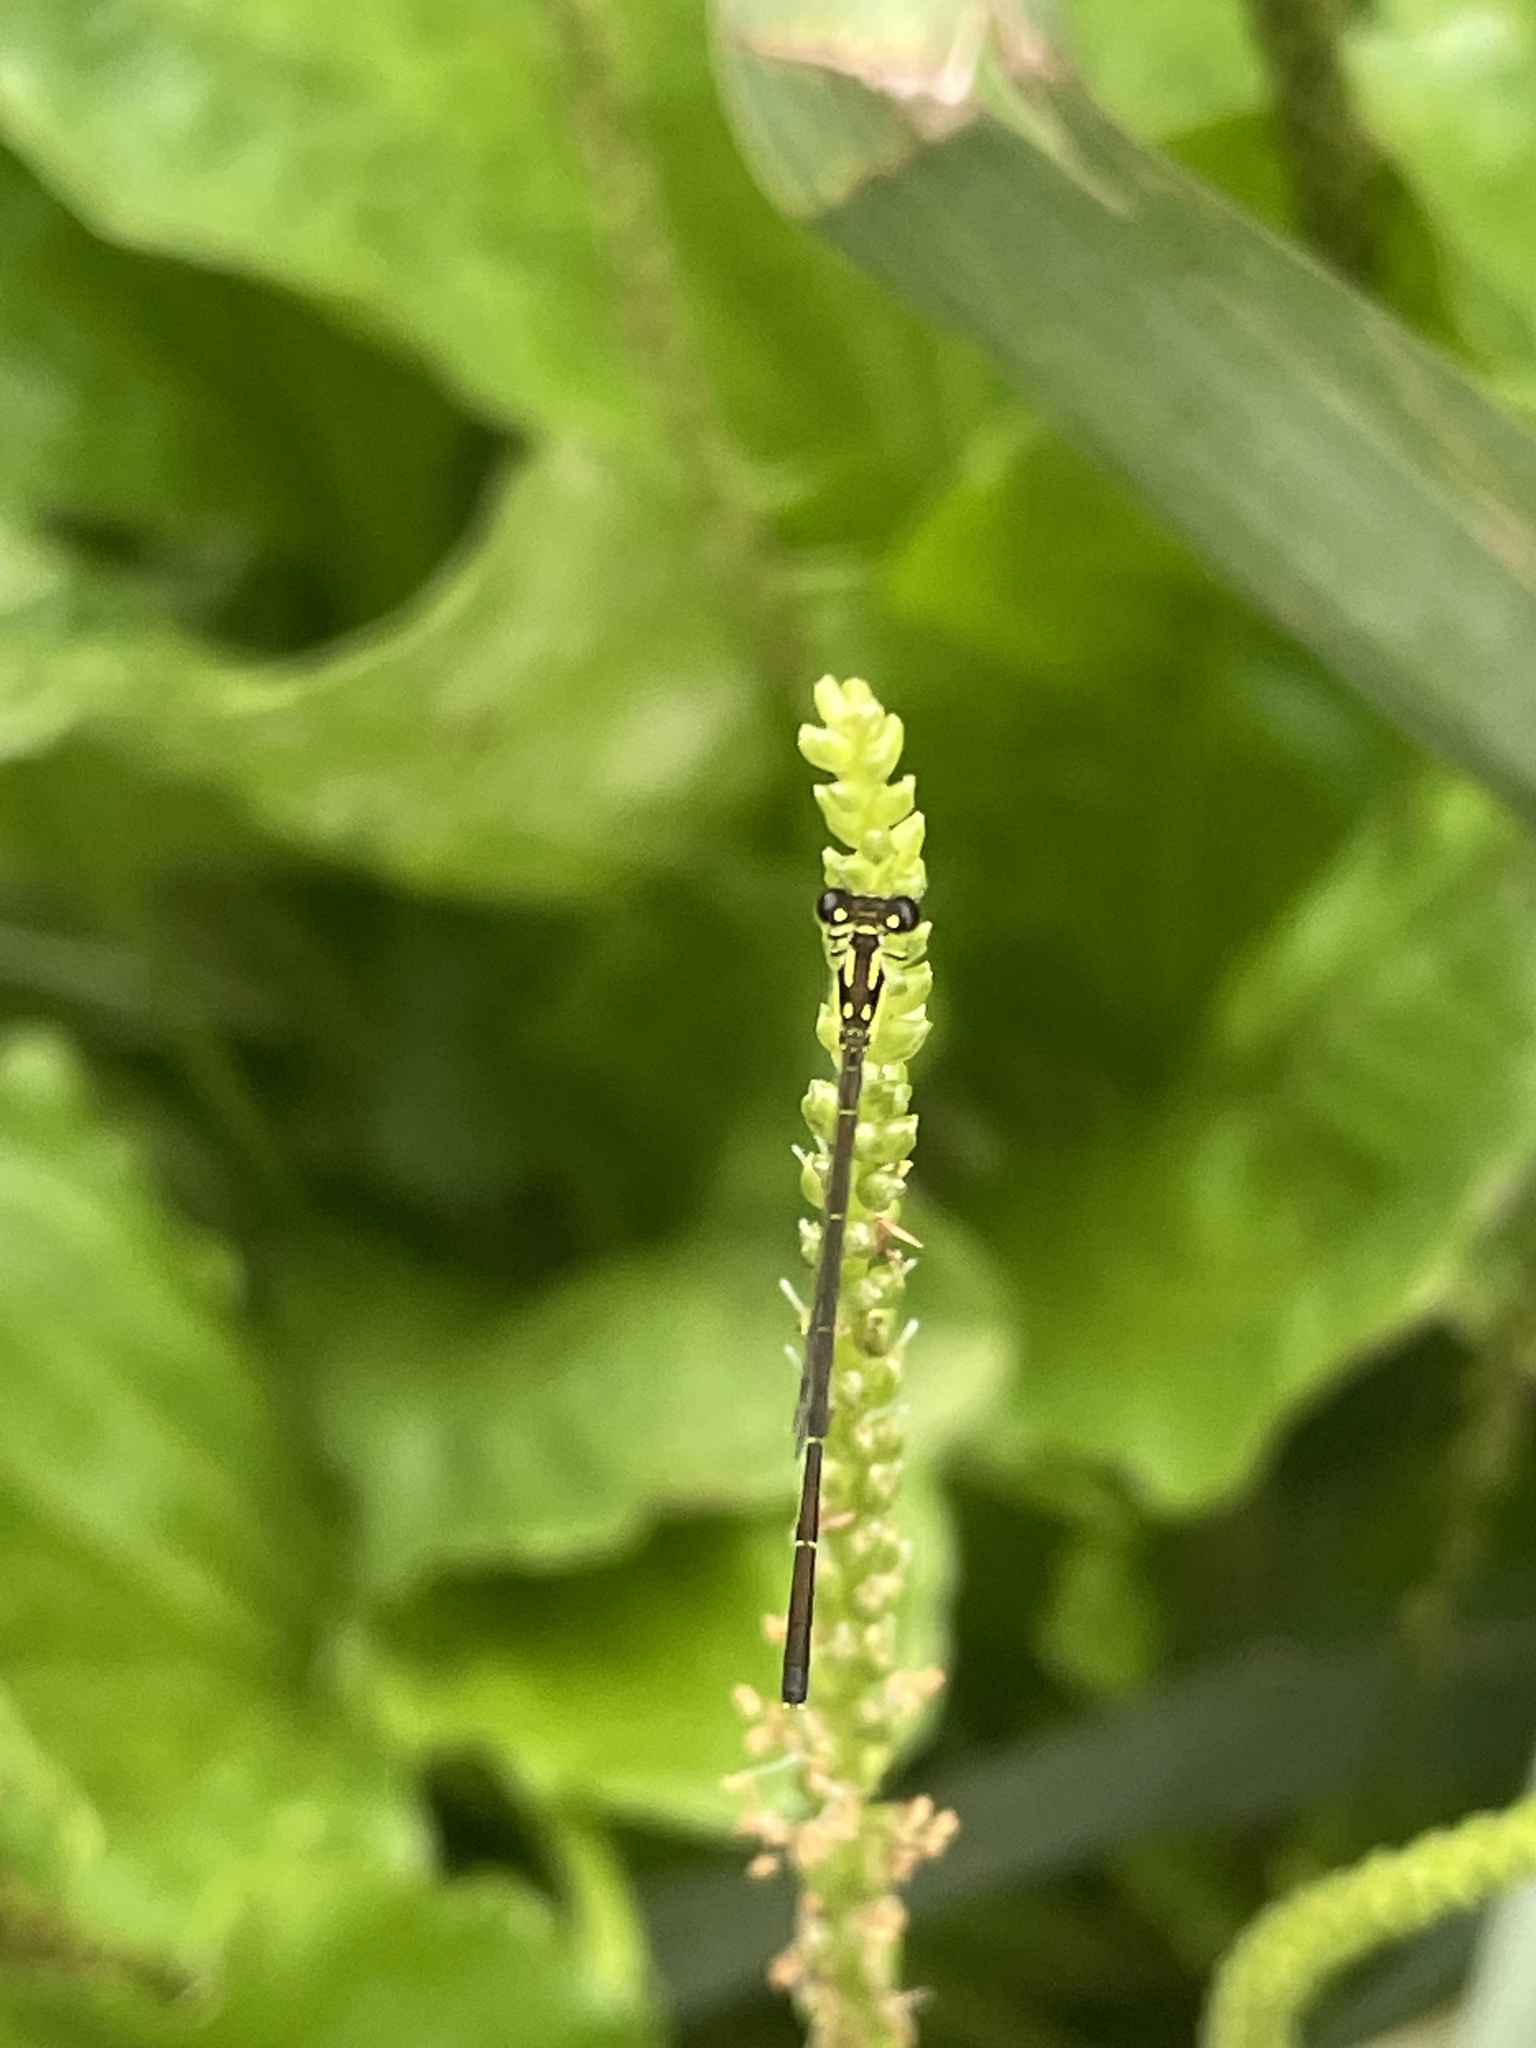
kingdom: Animalia
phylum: Arthropoda
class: Insecta
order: Odonata
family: Coenagrionidae
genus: Ischnura
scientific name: Ischnura posita
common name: Fragile forktail
